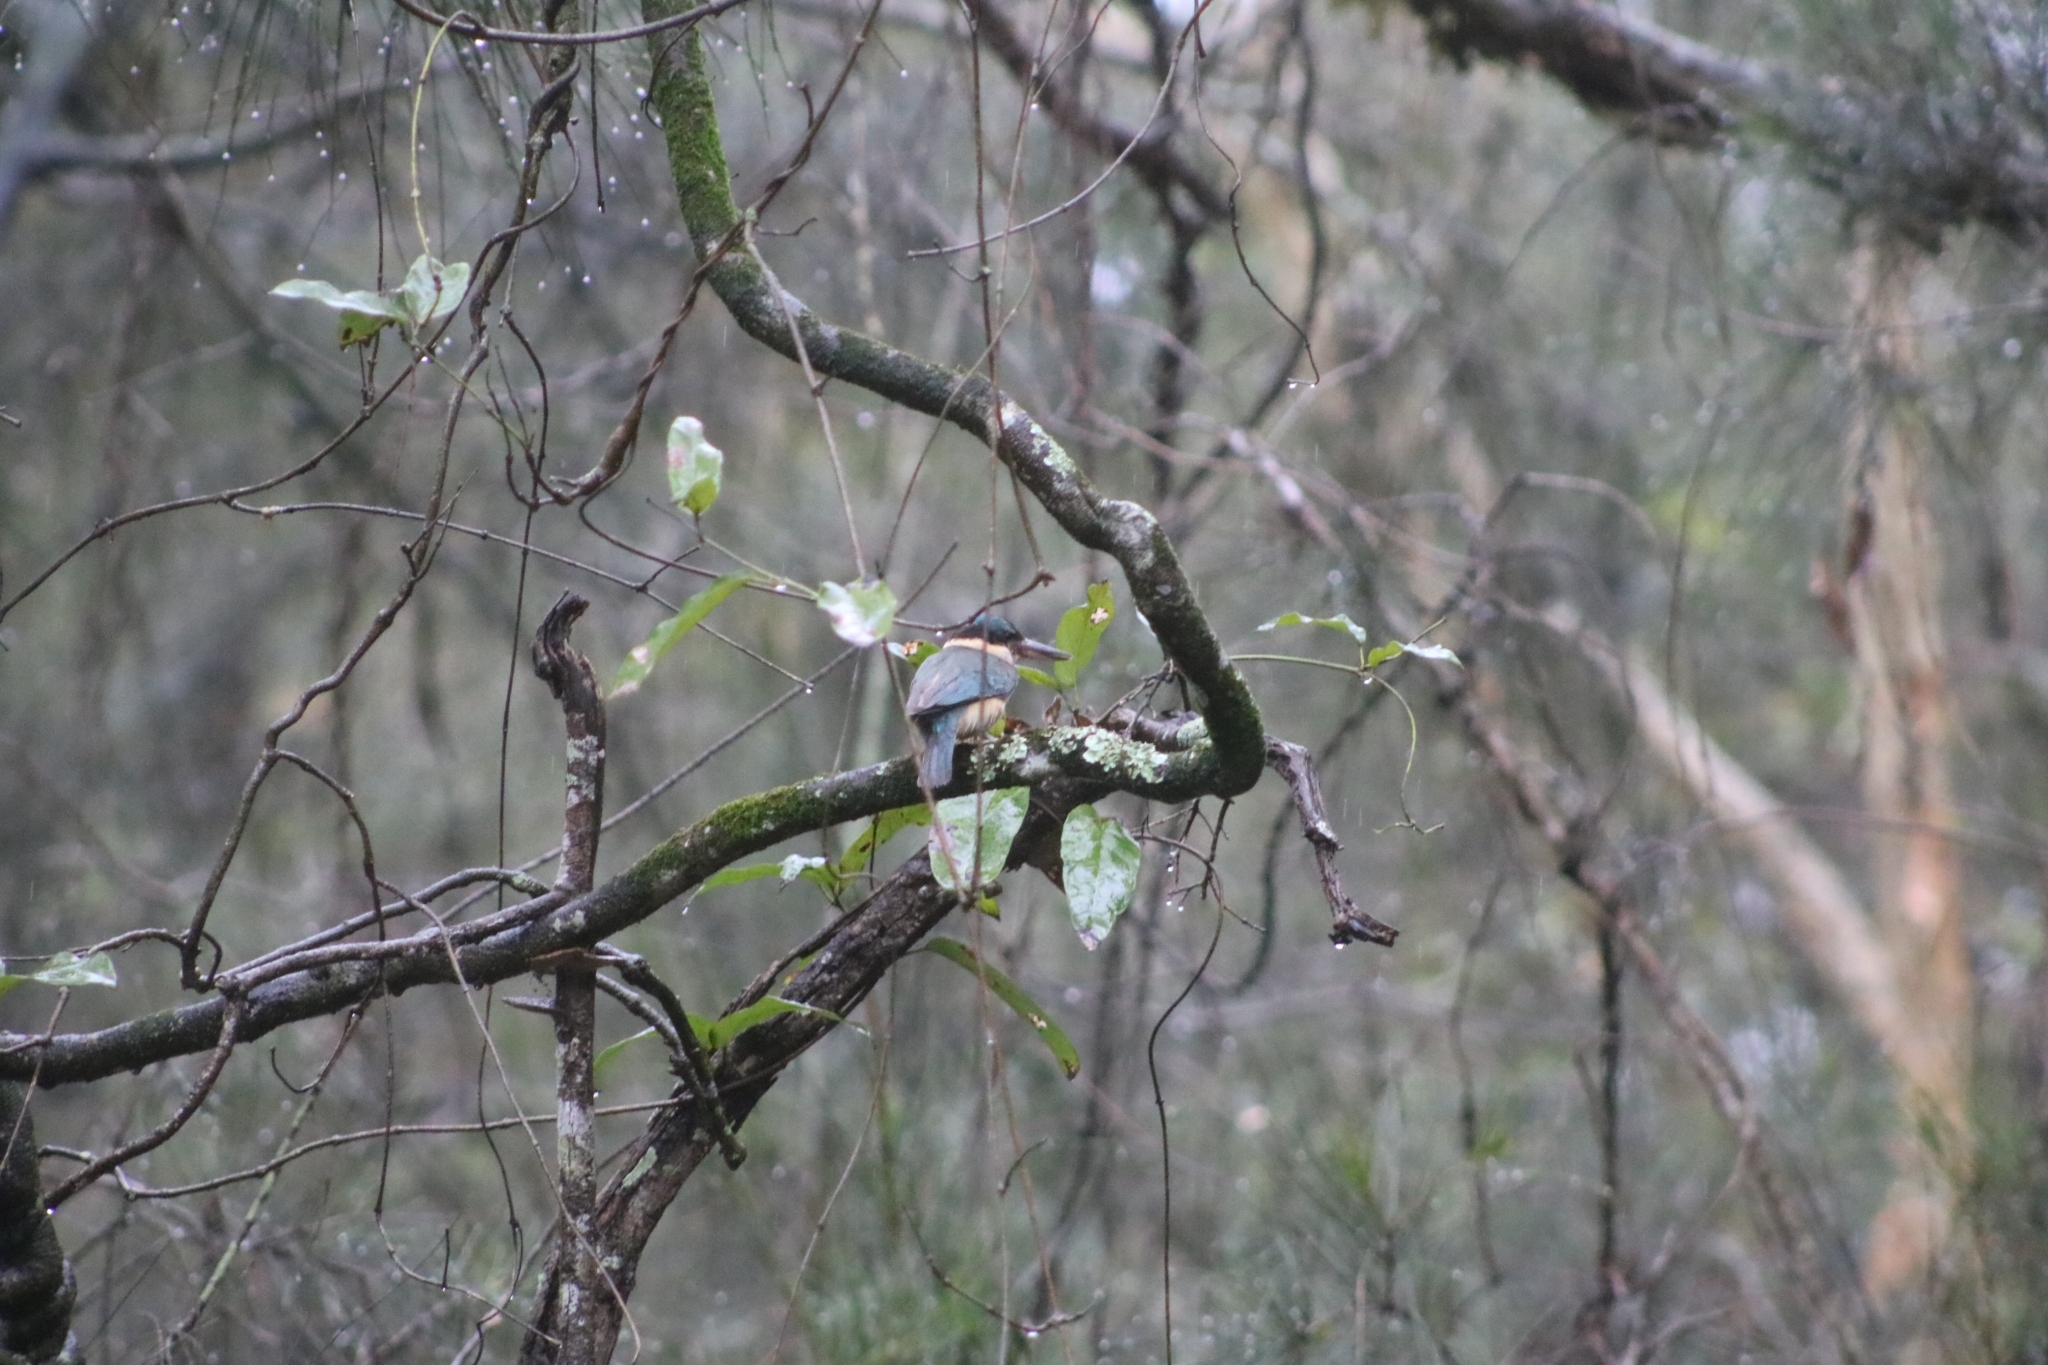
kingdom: Animalia
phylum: Chordata
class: Aves
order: Coraciiformes
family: Alcedinidae
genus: Todiramphus
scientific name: Todiramphus sanctus
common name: Sacred kingfisher
